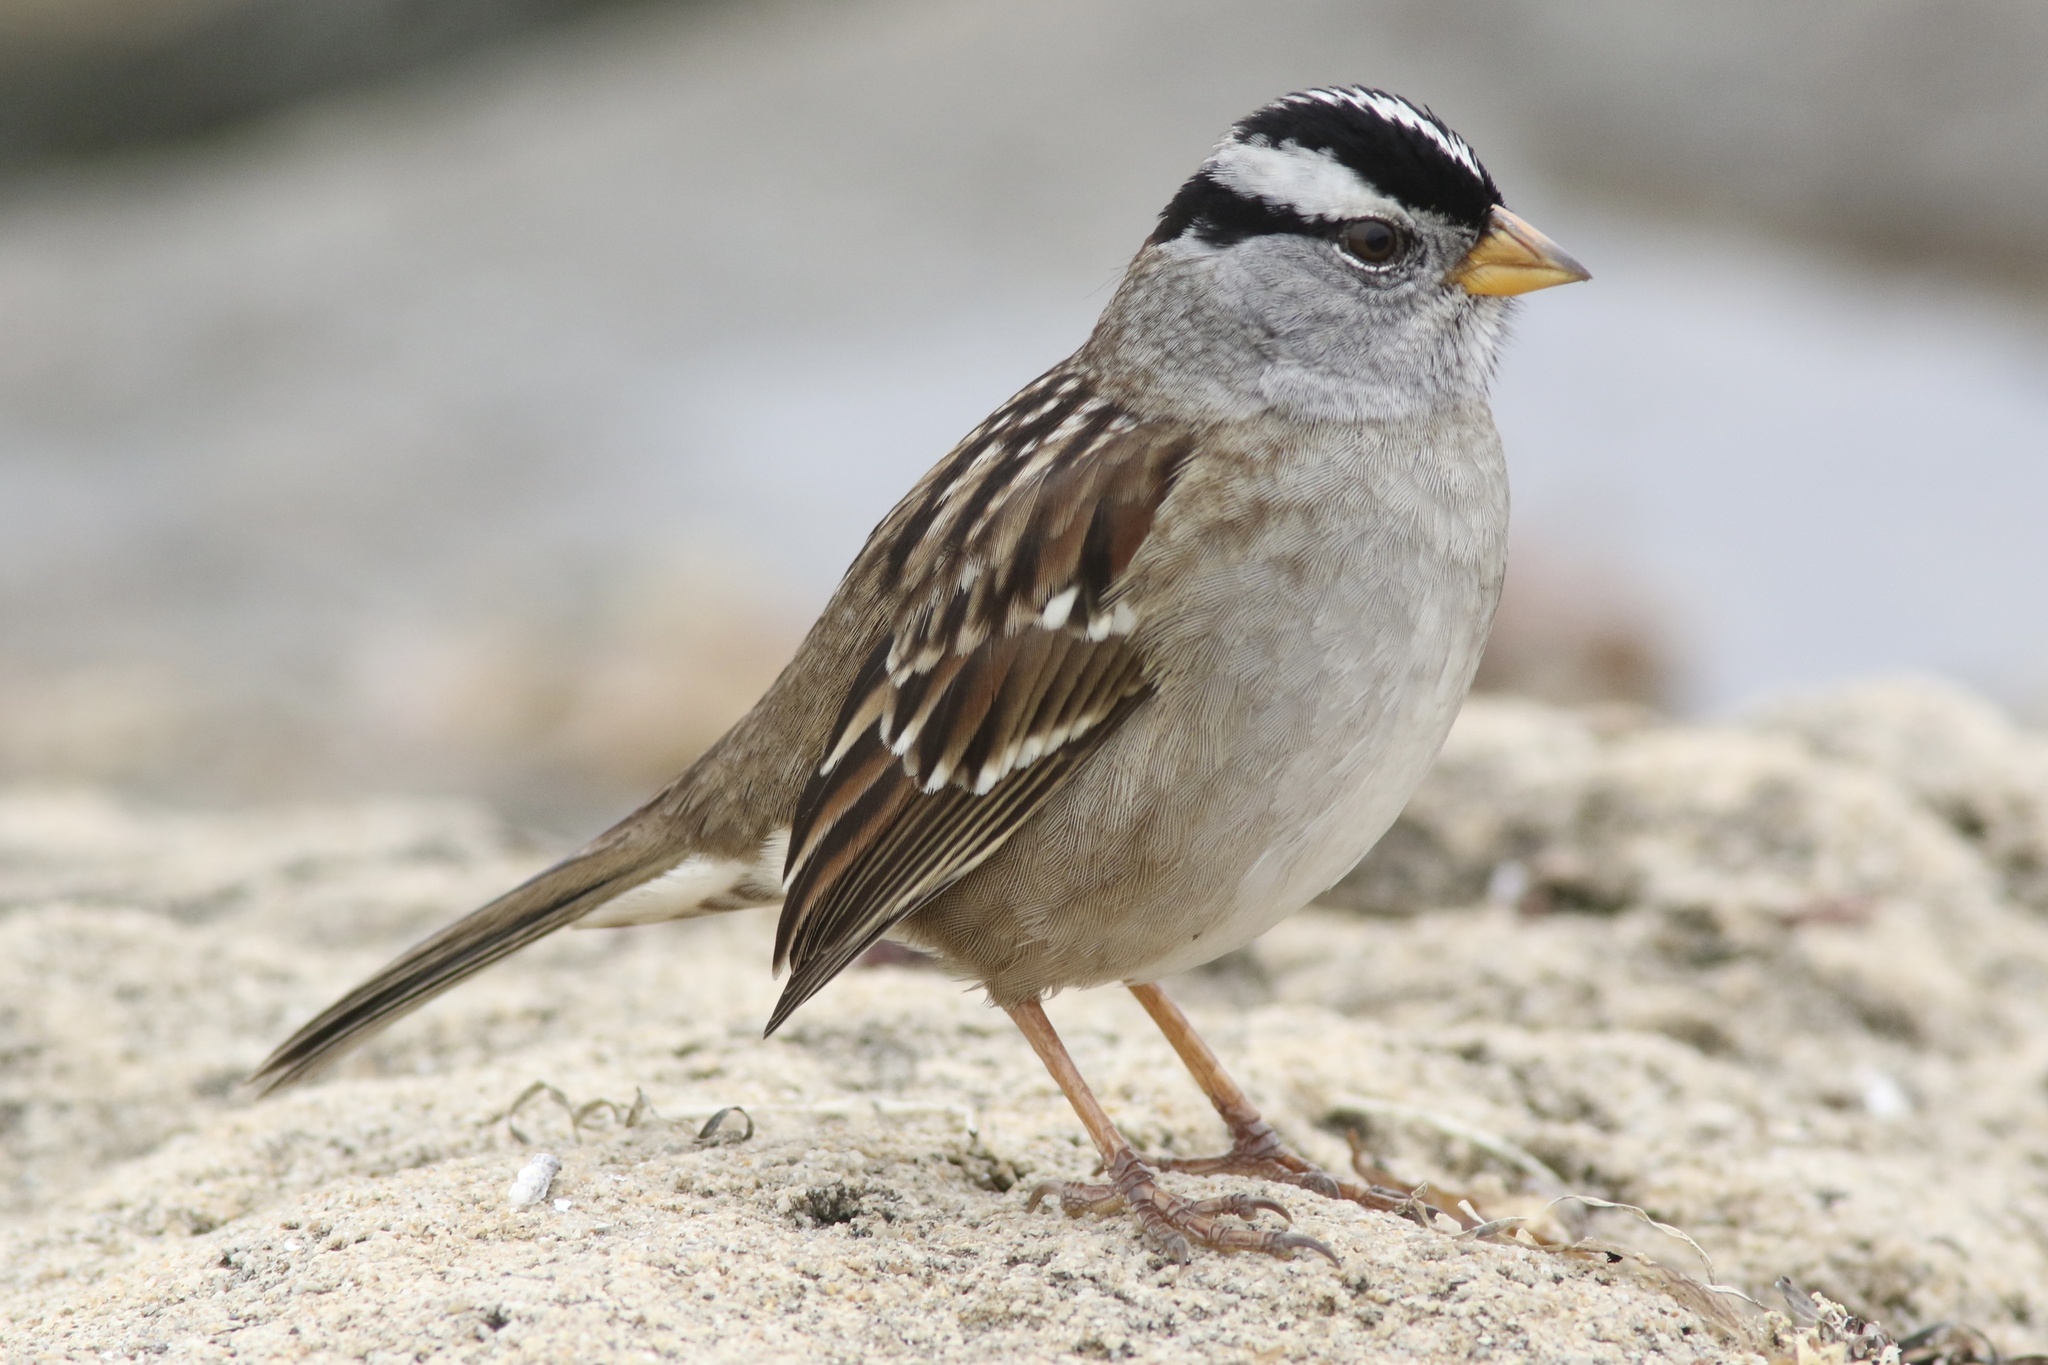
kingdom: Animalia
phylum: Chordata
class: Aves
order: Passeriformes
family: Passerellidae
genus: Zonotrichia
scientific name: Zonotrichia leucophrys
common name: White-crowned sparrow
